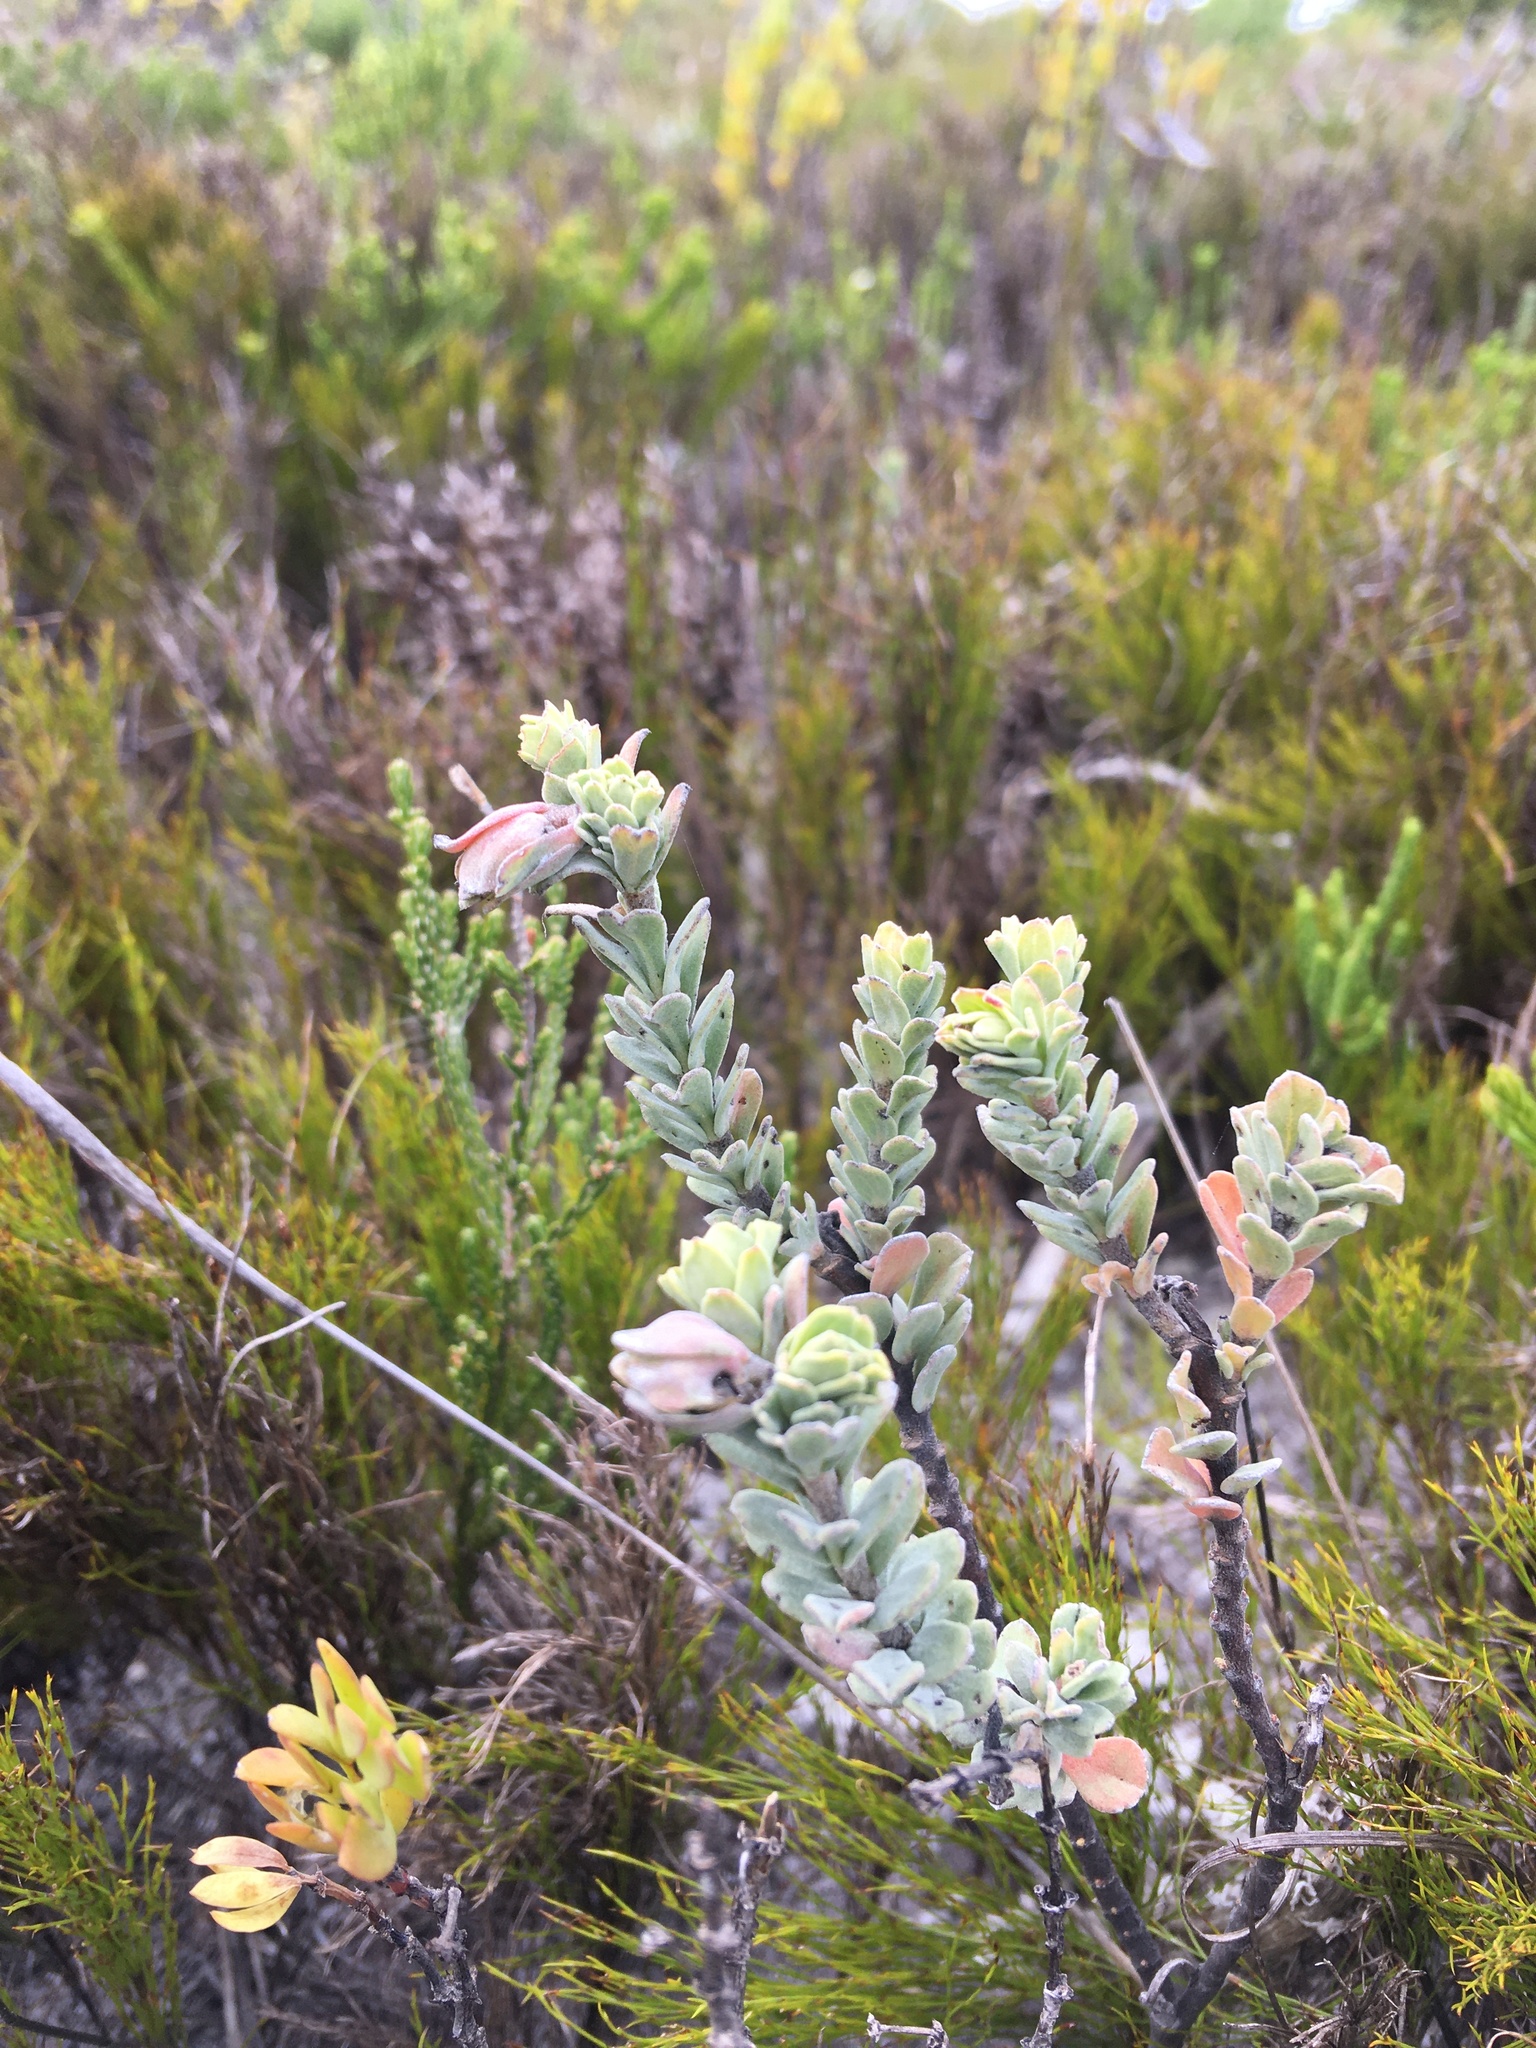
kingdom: Plantae
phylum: Tracheophyta
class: Magnoliopsida
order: Malvales
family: Malvaceae
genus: Hermannia
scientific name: Hermannia trifoliata
